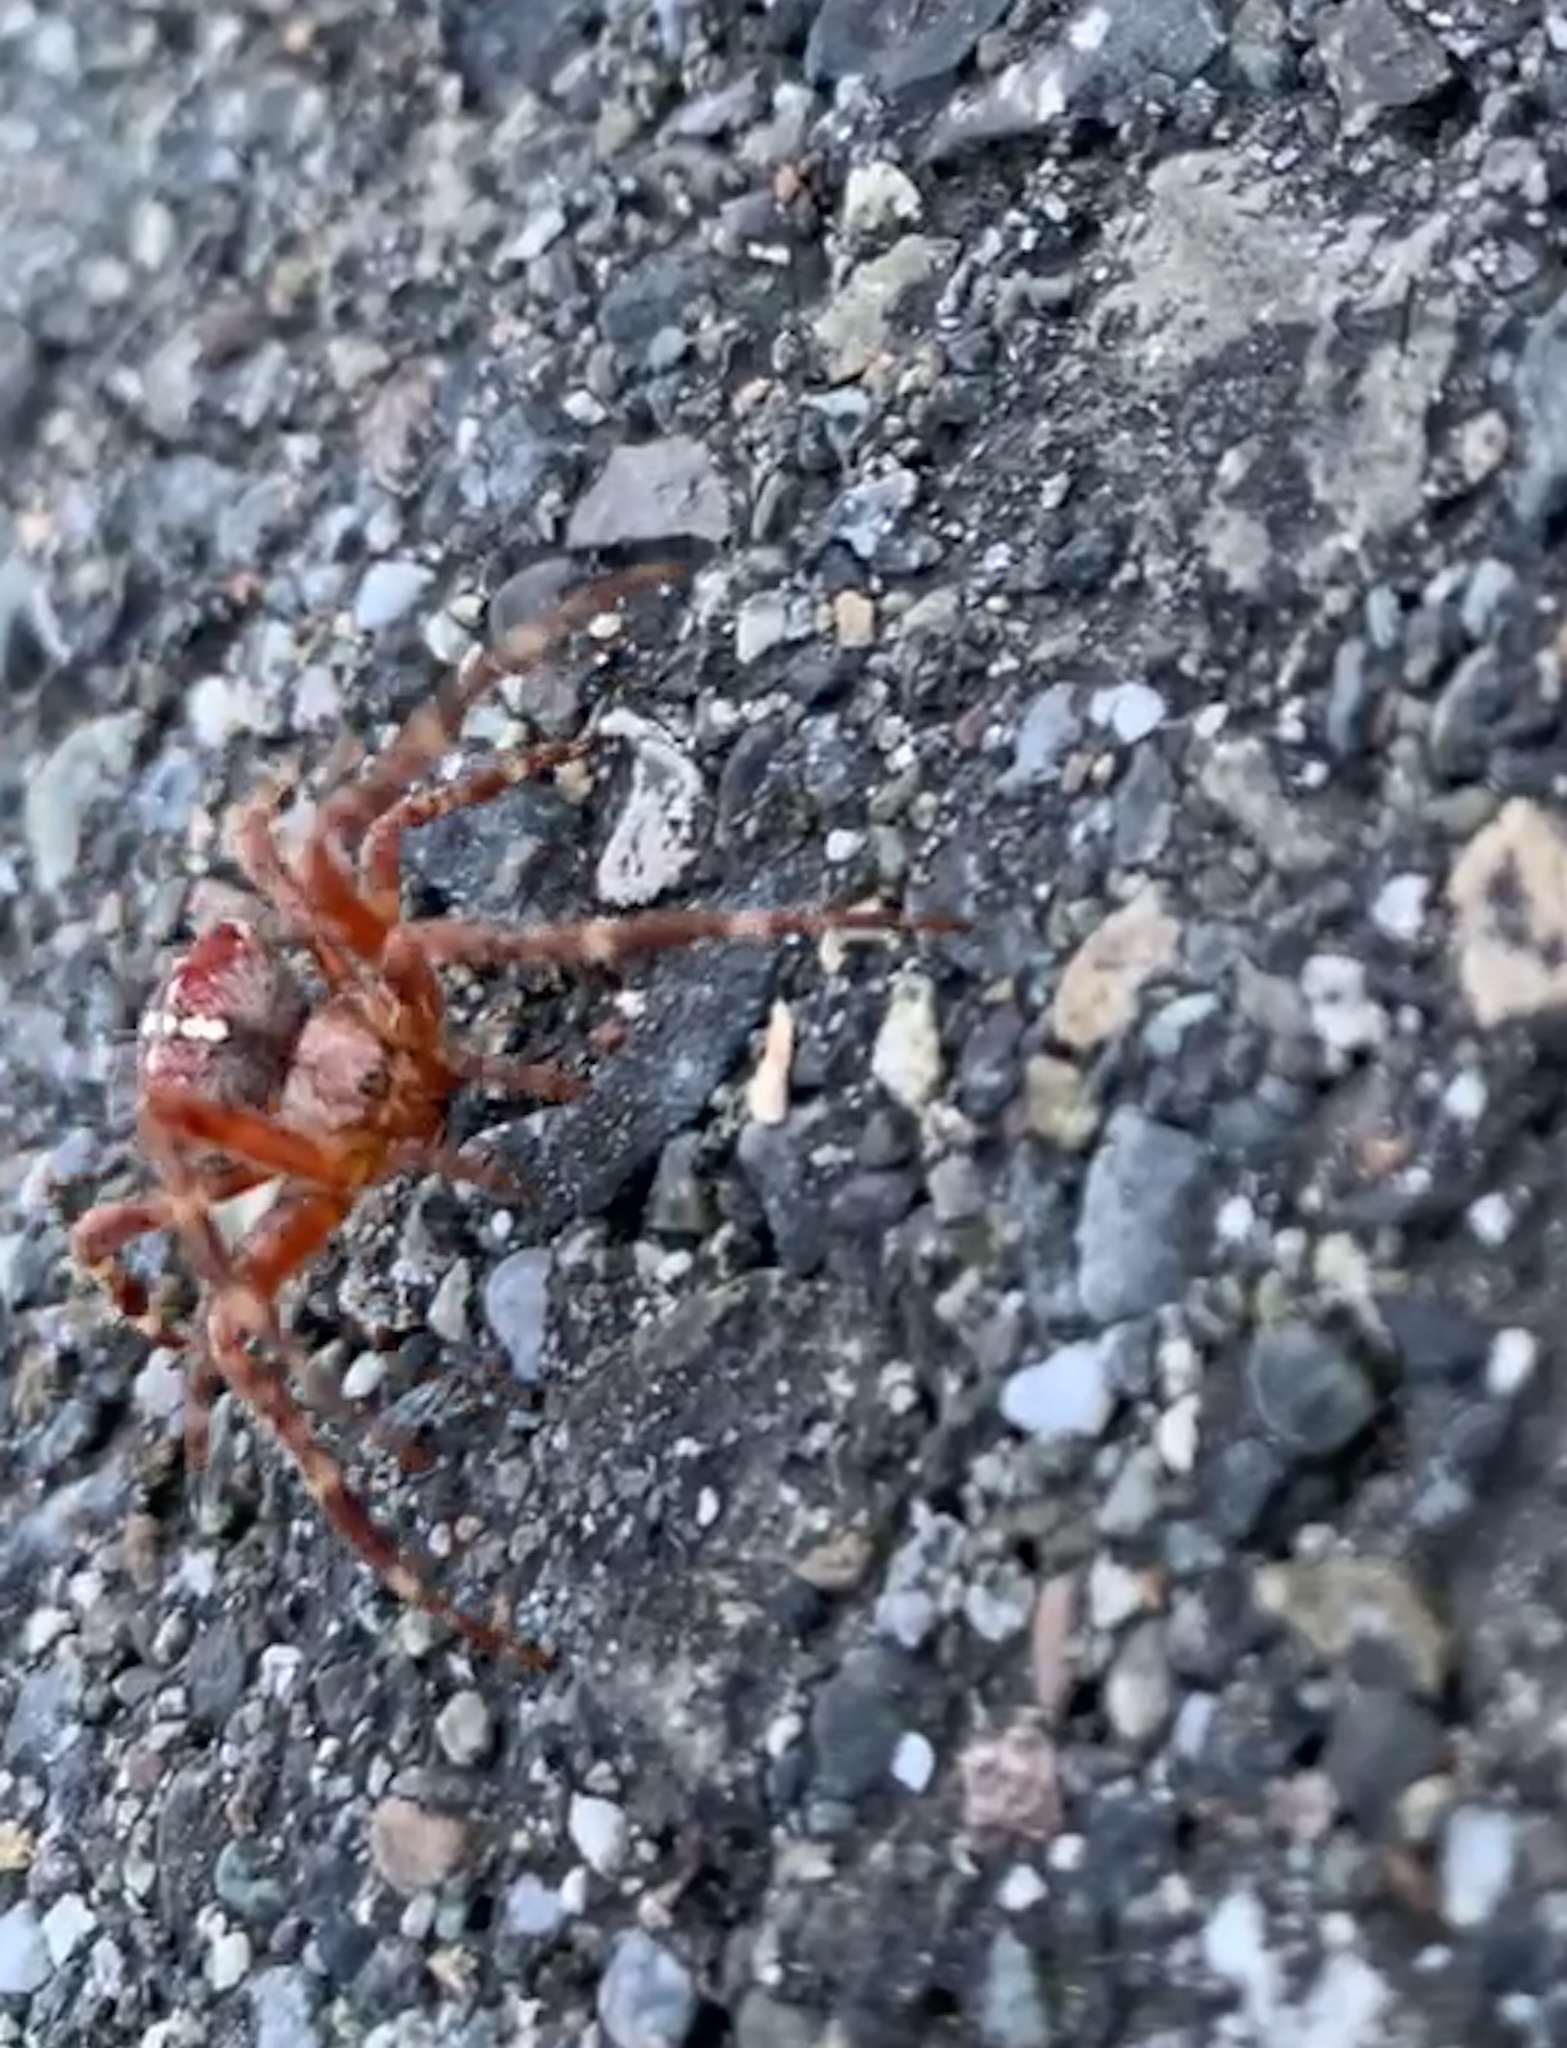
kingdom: Animalia
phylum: Arthropoda
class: Arachnida
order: Araneae
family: Araneidae
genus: Araneus
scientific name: Araneus diadematus
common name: Cross orbweaver
